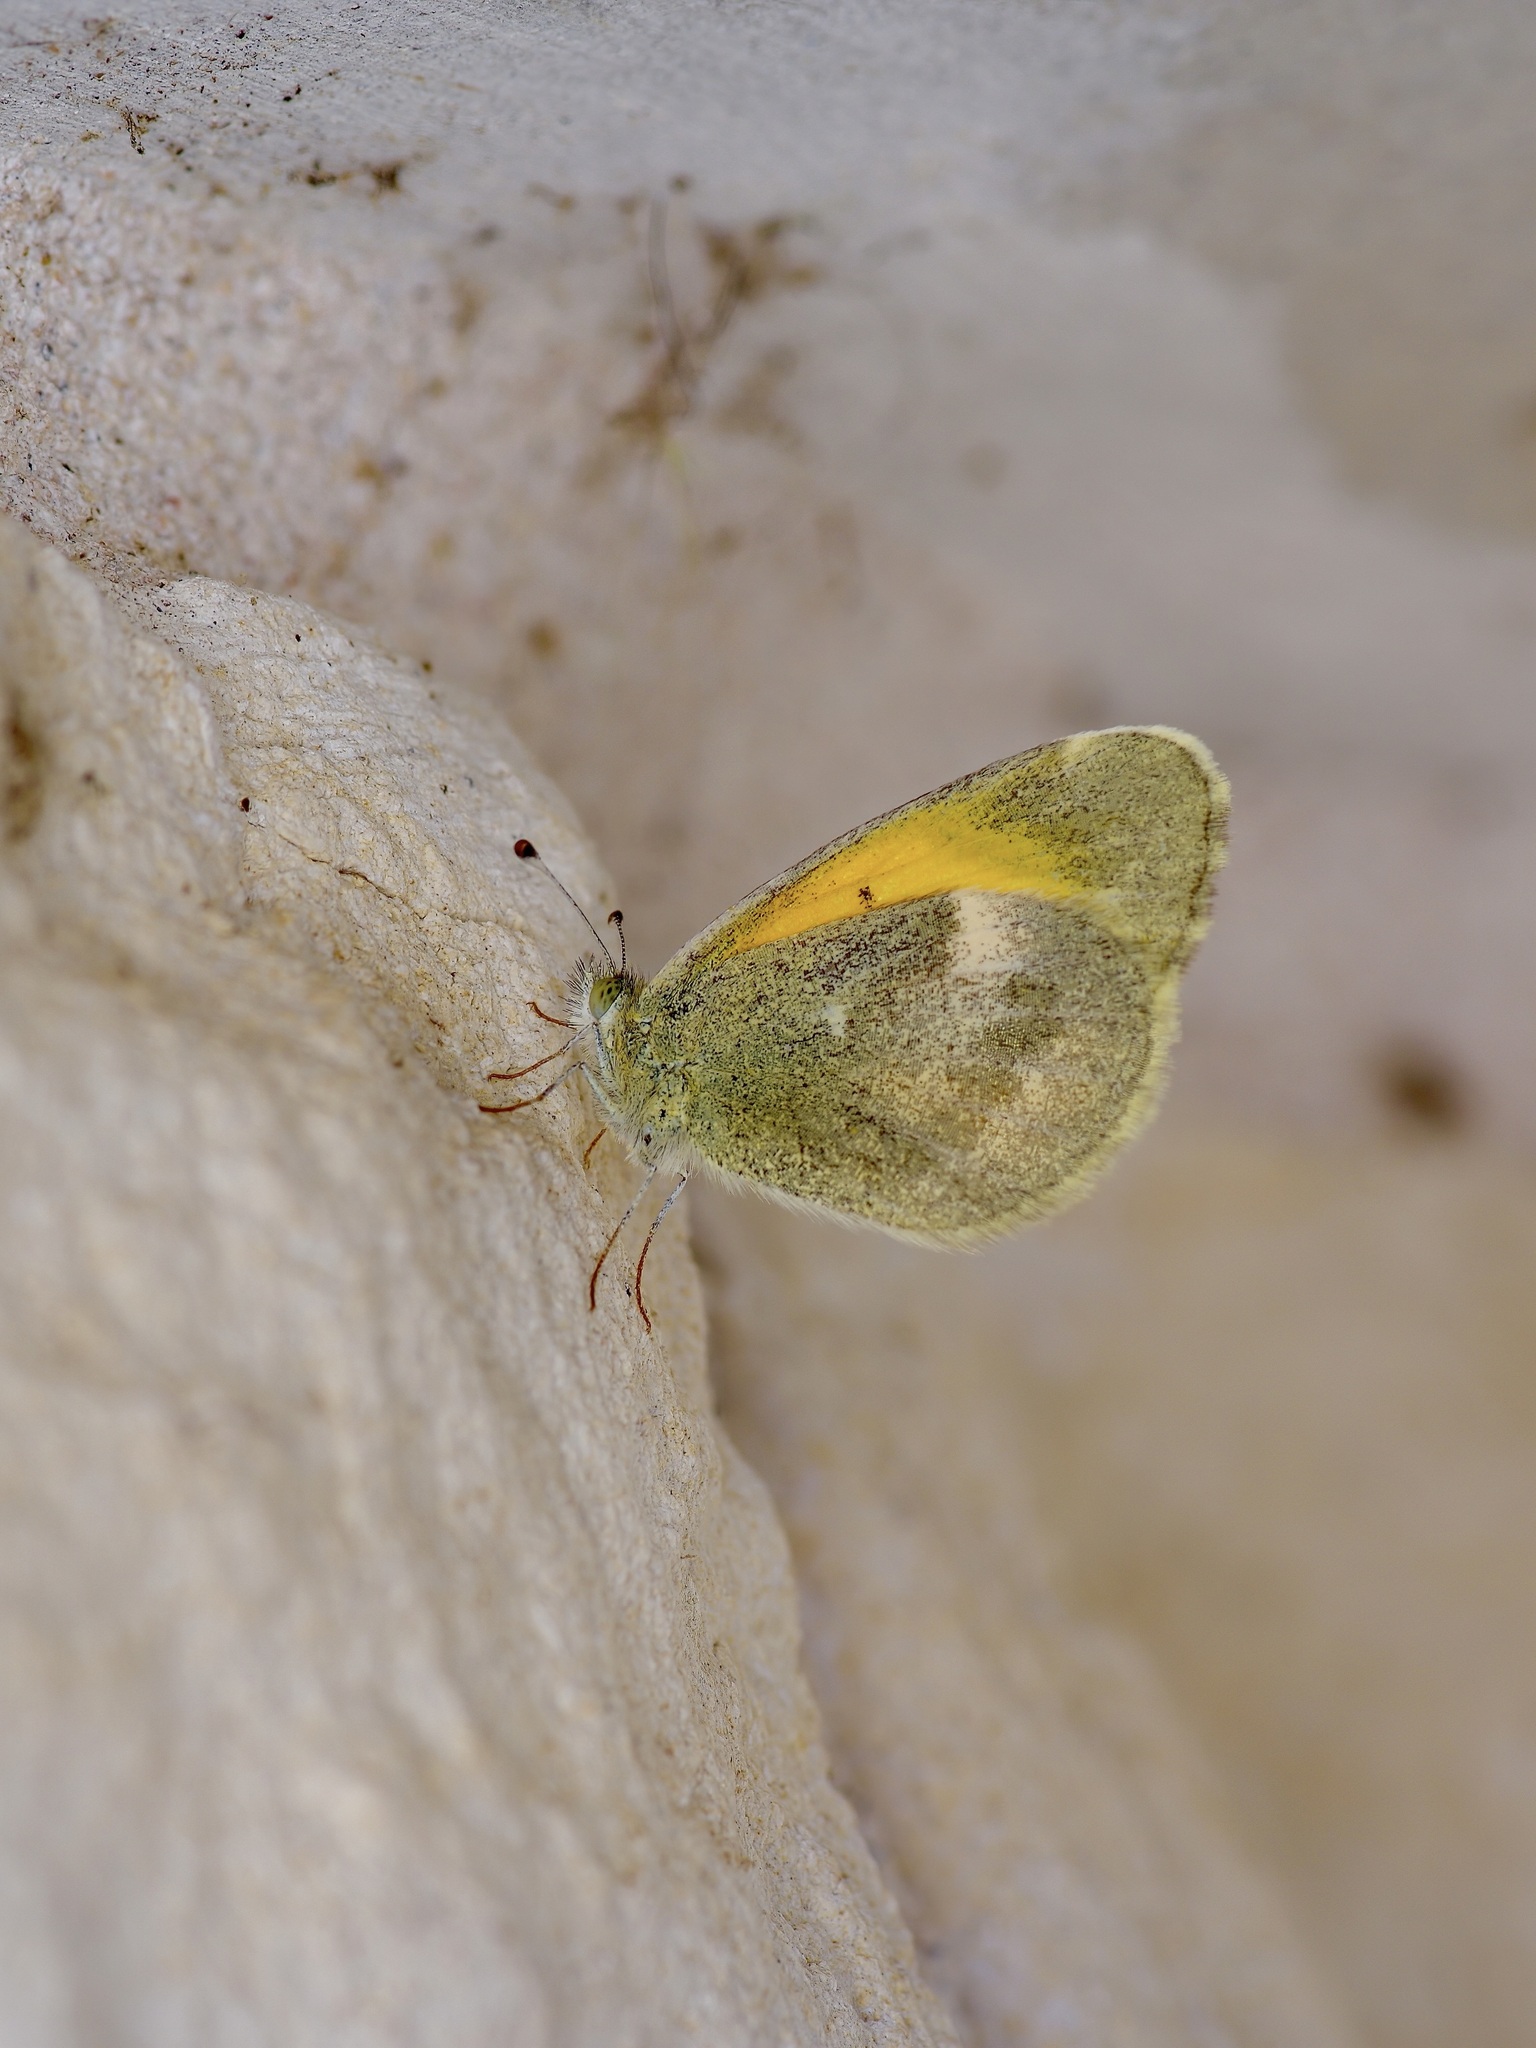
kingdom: Animalia
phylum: Arthropoda
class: Insecta
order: Lepidoptera
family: Pieridae
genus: Nathalis
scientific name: Nathalis iole
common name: Dainty sulphur
